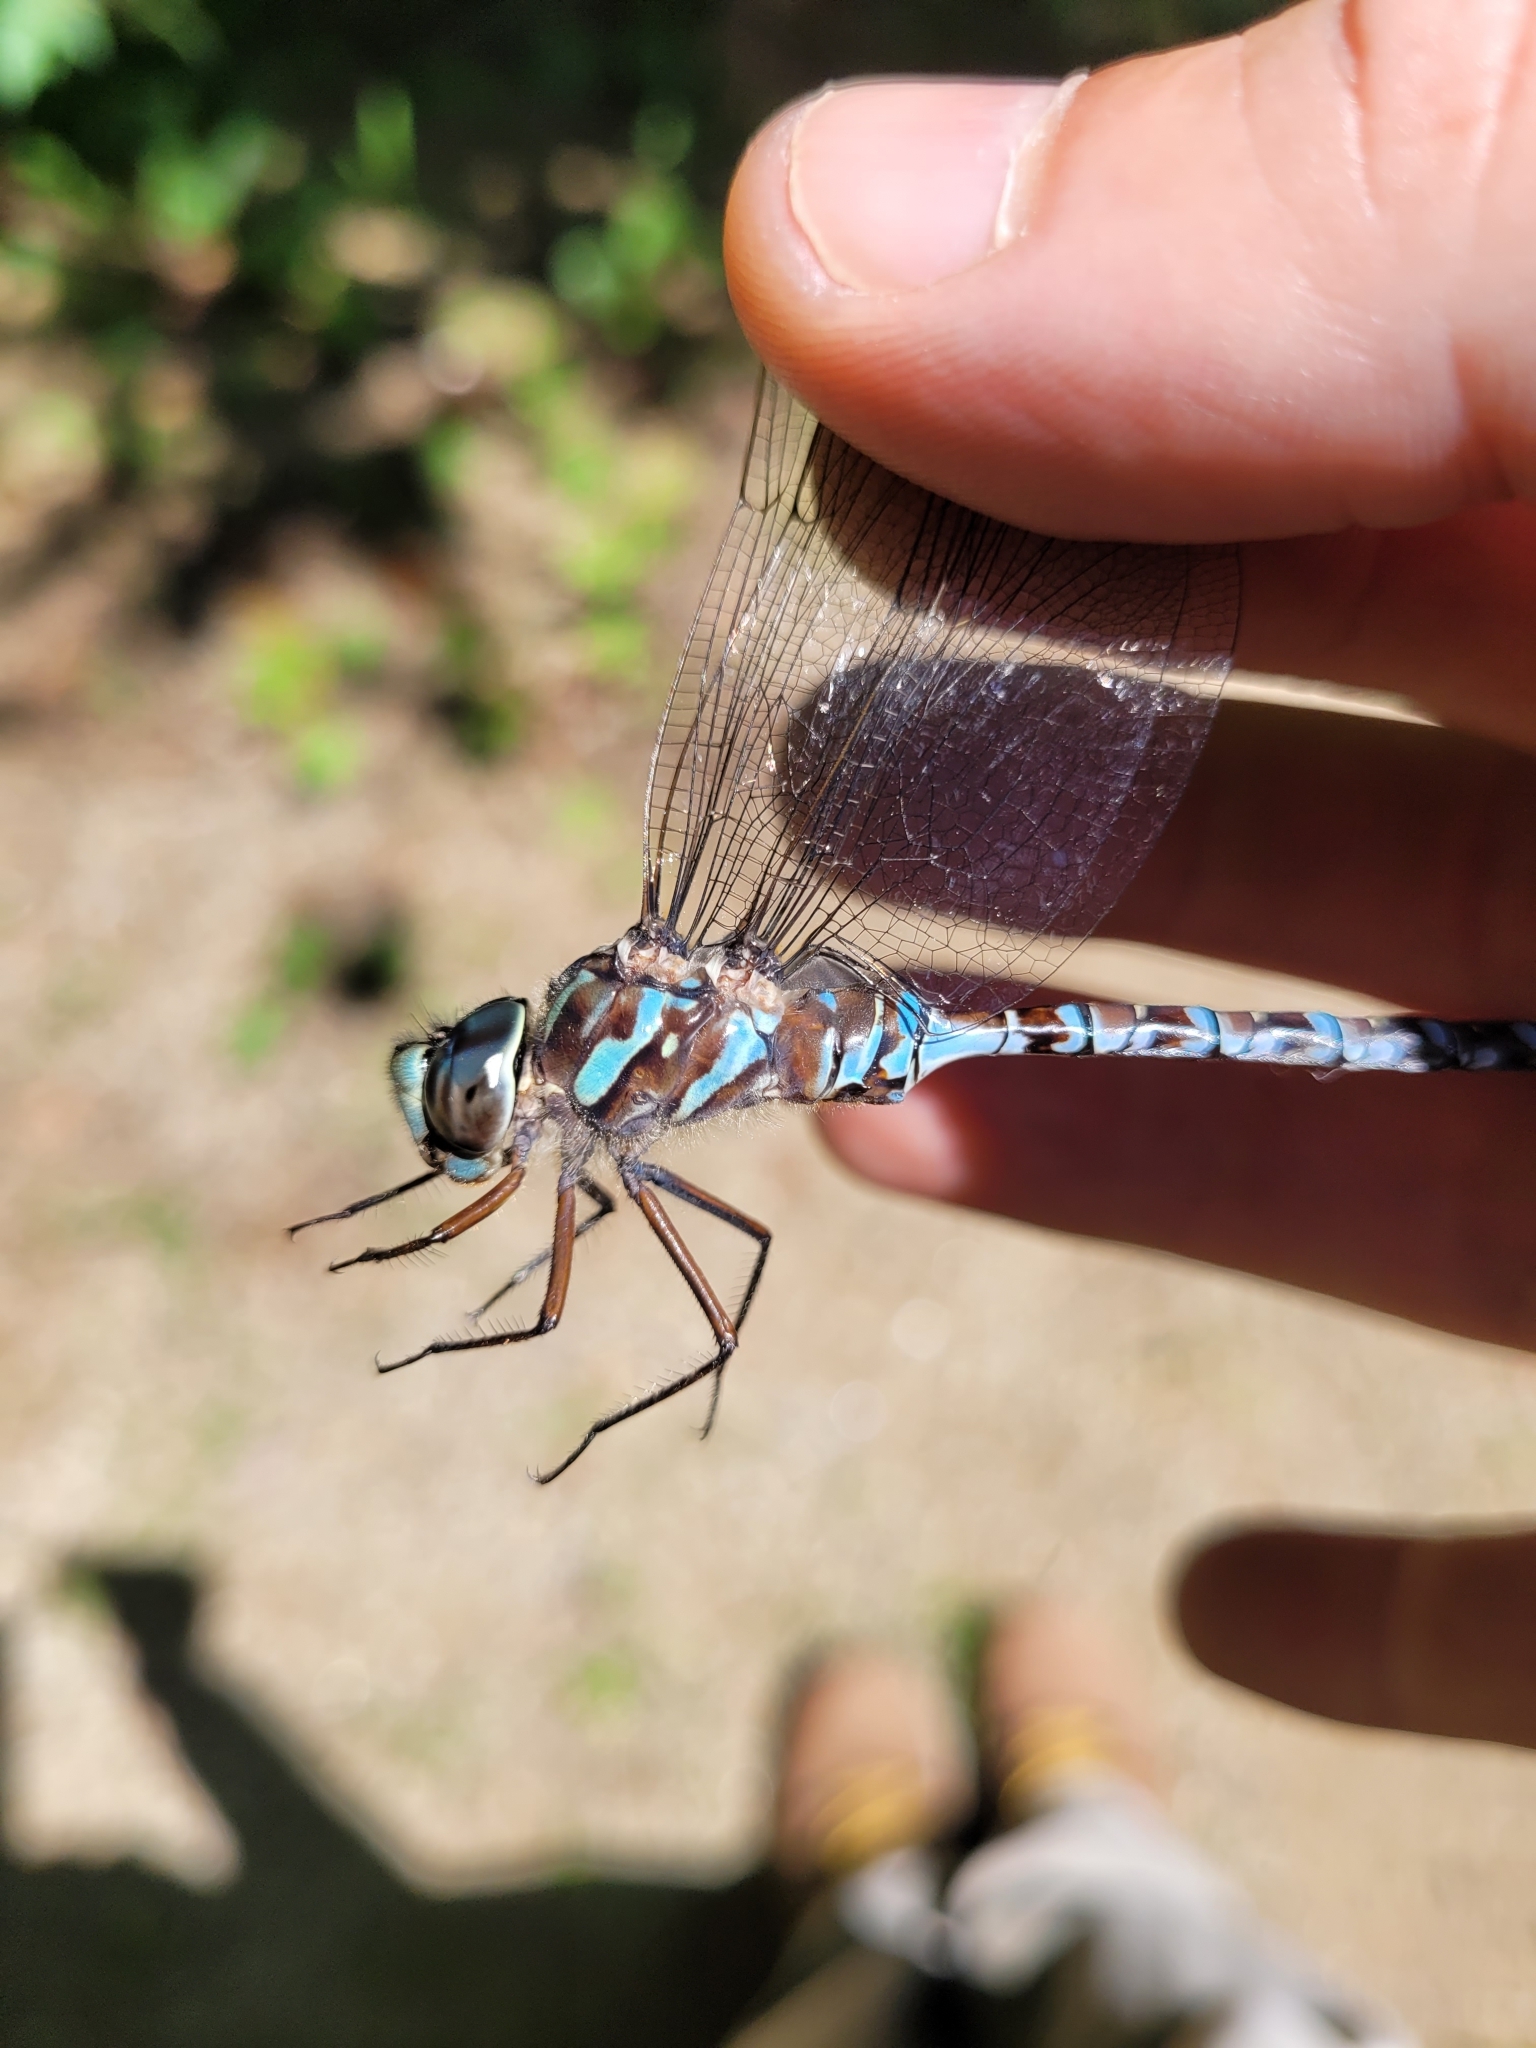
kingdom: Animalia
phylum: Arthropoda
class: Insecta
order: Odonata
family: Aeshnidae
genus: Aeshna
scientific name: Aeshna canadensis
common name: Canada darner
